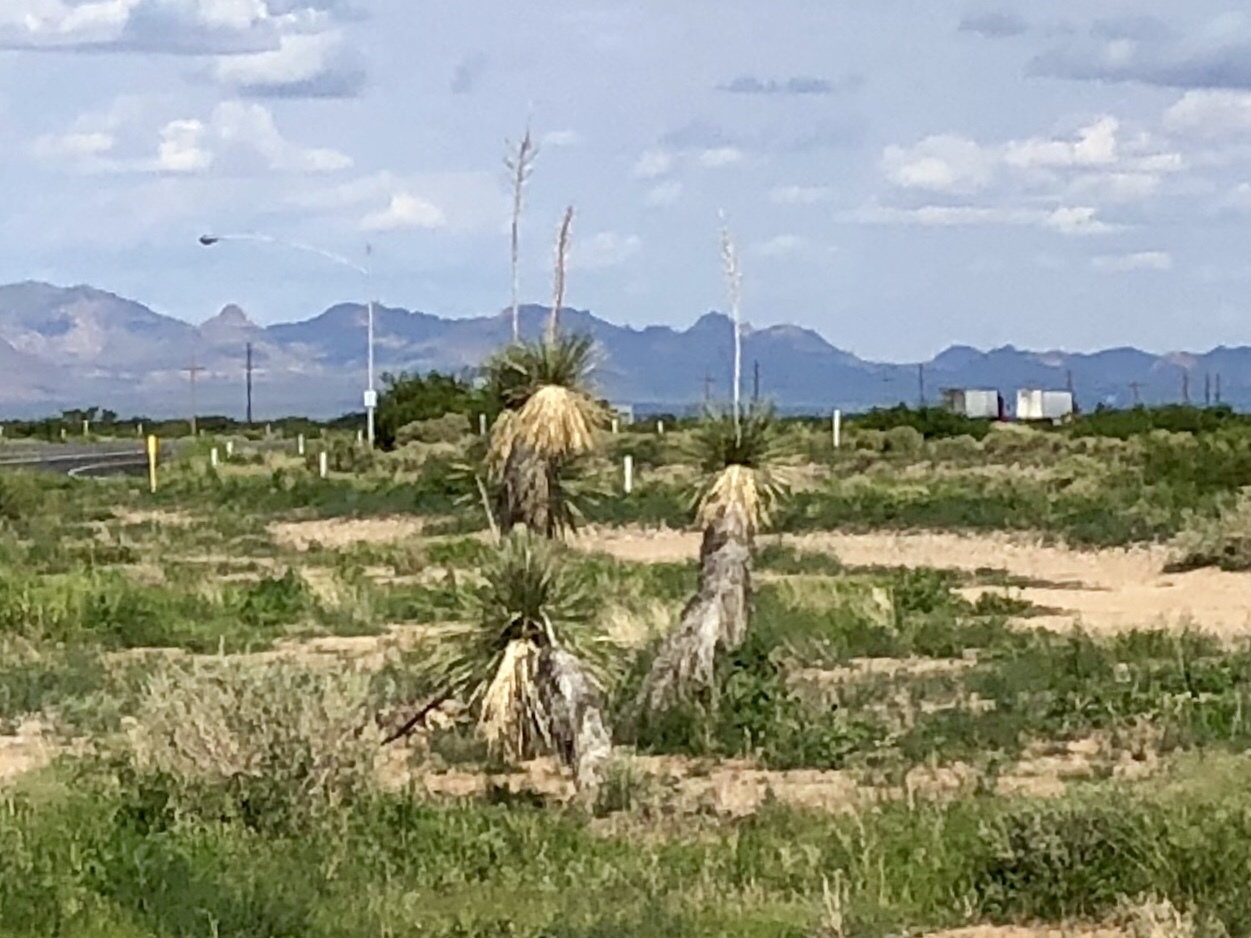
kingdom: Plantae
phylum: Tracheophyta
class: Liliopsida
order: Asparagales
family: Asparagaceae
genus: Yucca
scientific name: Yucca elata
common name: Palmella
